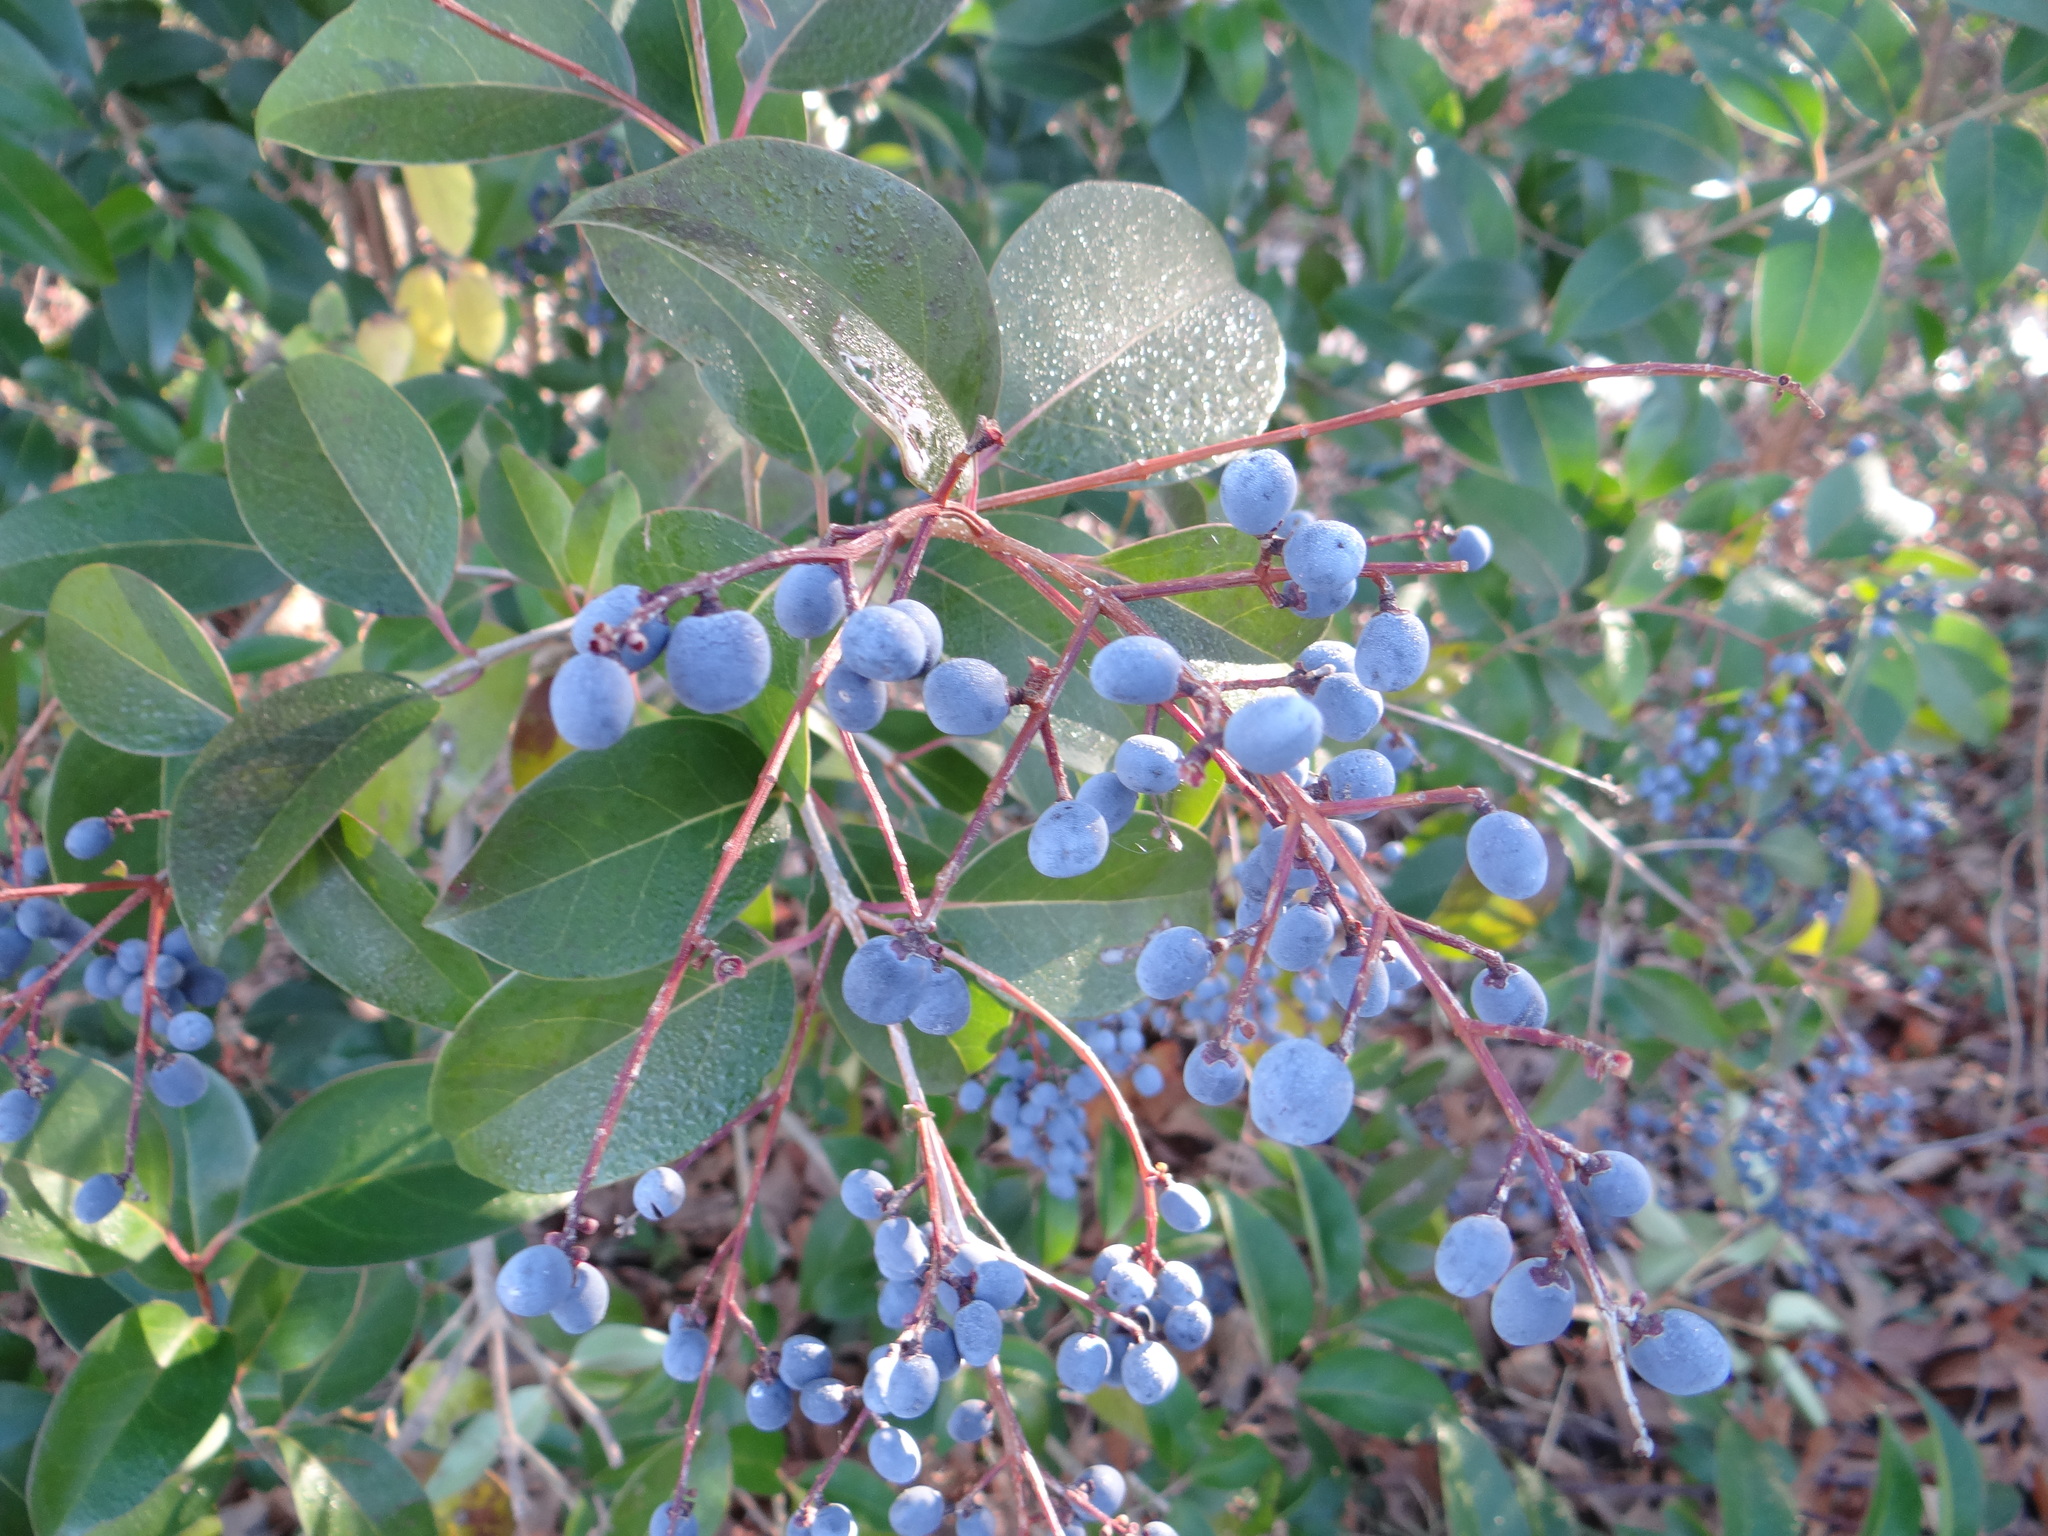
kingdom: Plantae
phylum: Tracheophyta
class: Magnoliopsida
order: Lamiales
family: Oleaceae
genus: Ligustrum
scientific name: Ligustrum lucidum
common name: Glossy privet
